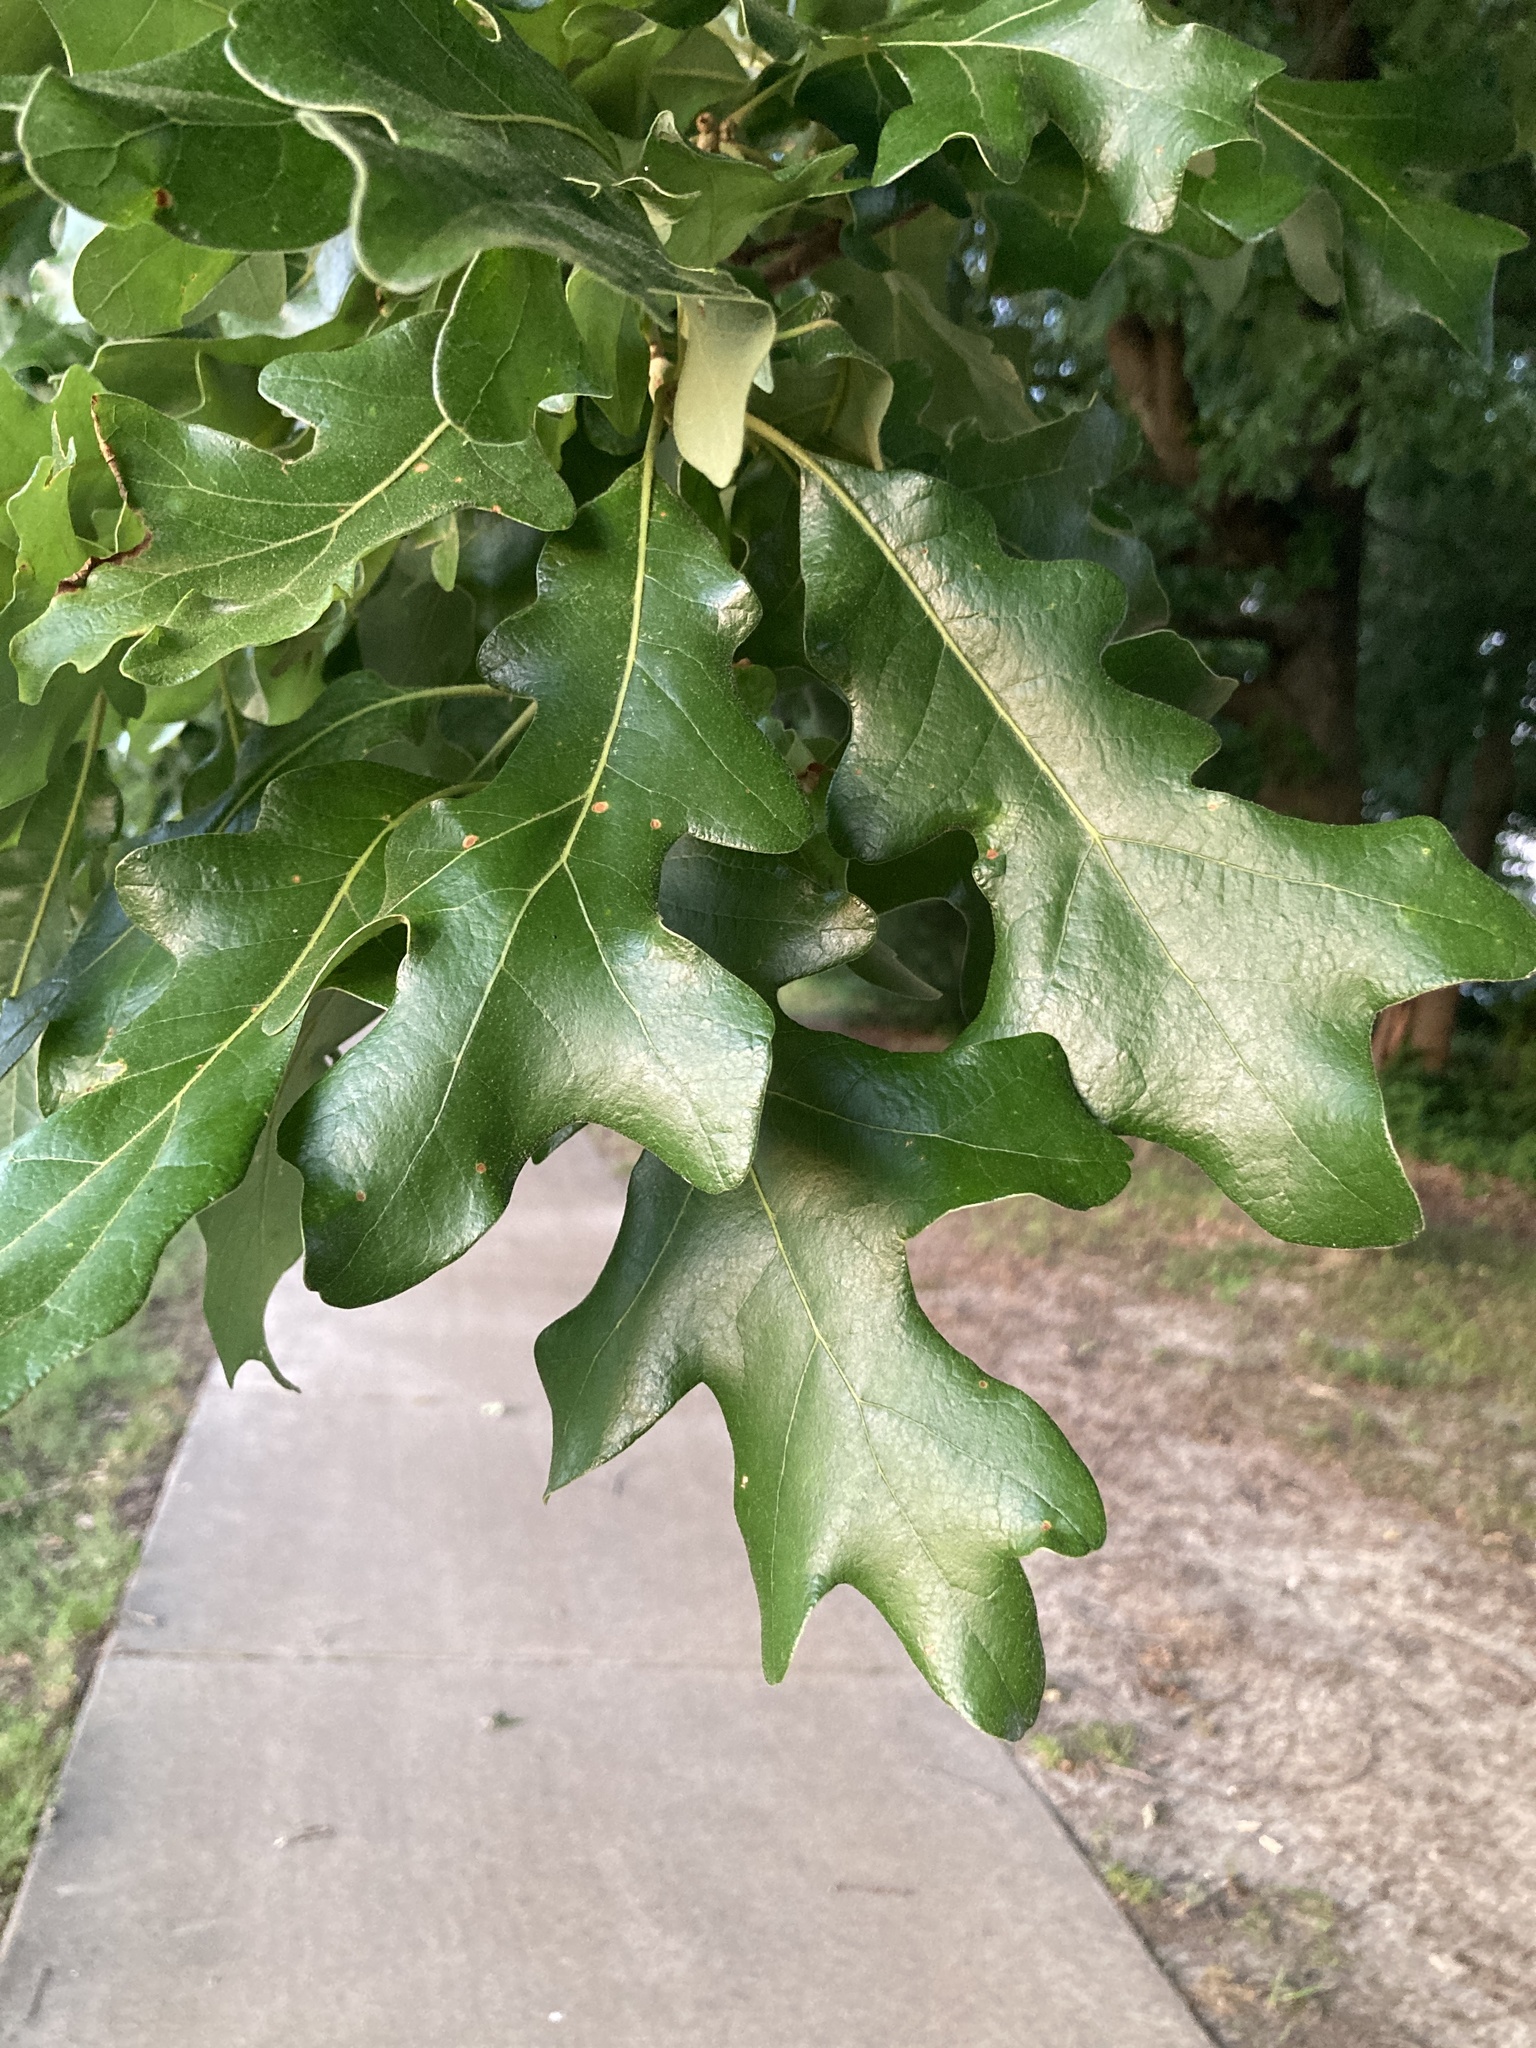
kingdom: Plantae
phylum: Tracheophyta
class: Magnoliopsida
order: Fagales
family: Fagaceae
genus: Quercus
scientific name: Quercus stellata
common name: Post oak
